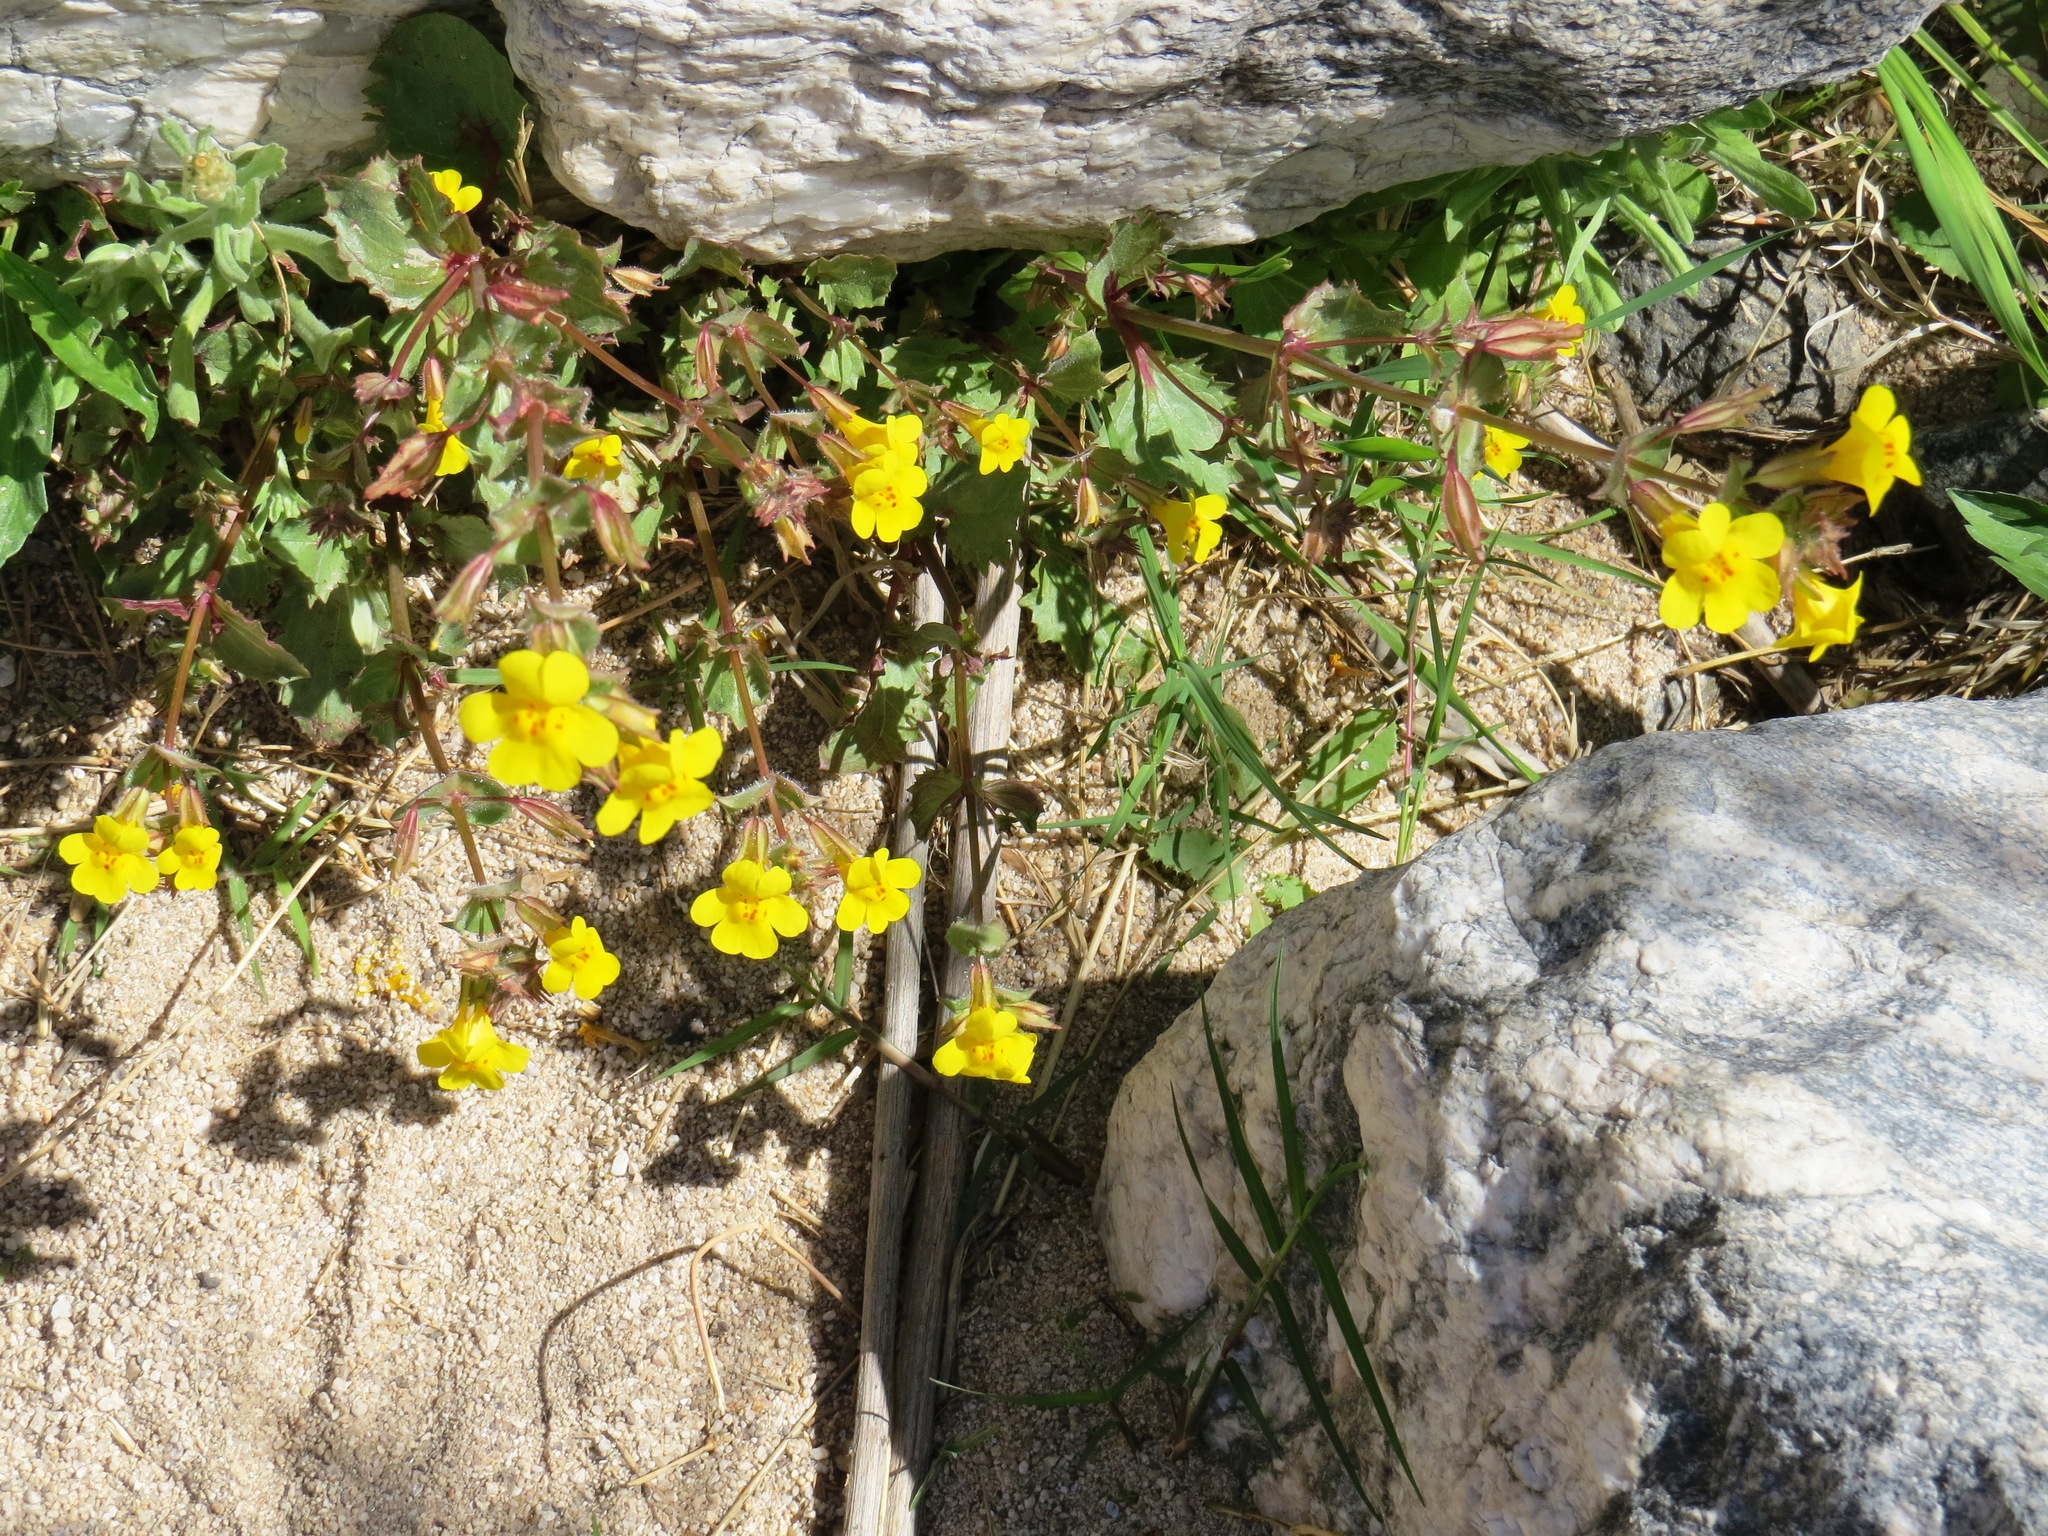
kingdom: Plantae
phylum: Tracheophyta
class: Magnoliopsida
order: Lamiales
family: Phrymaceae
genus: Erythranthe
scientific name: Erythranthe guttata
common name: Monkeyflower
